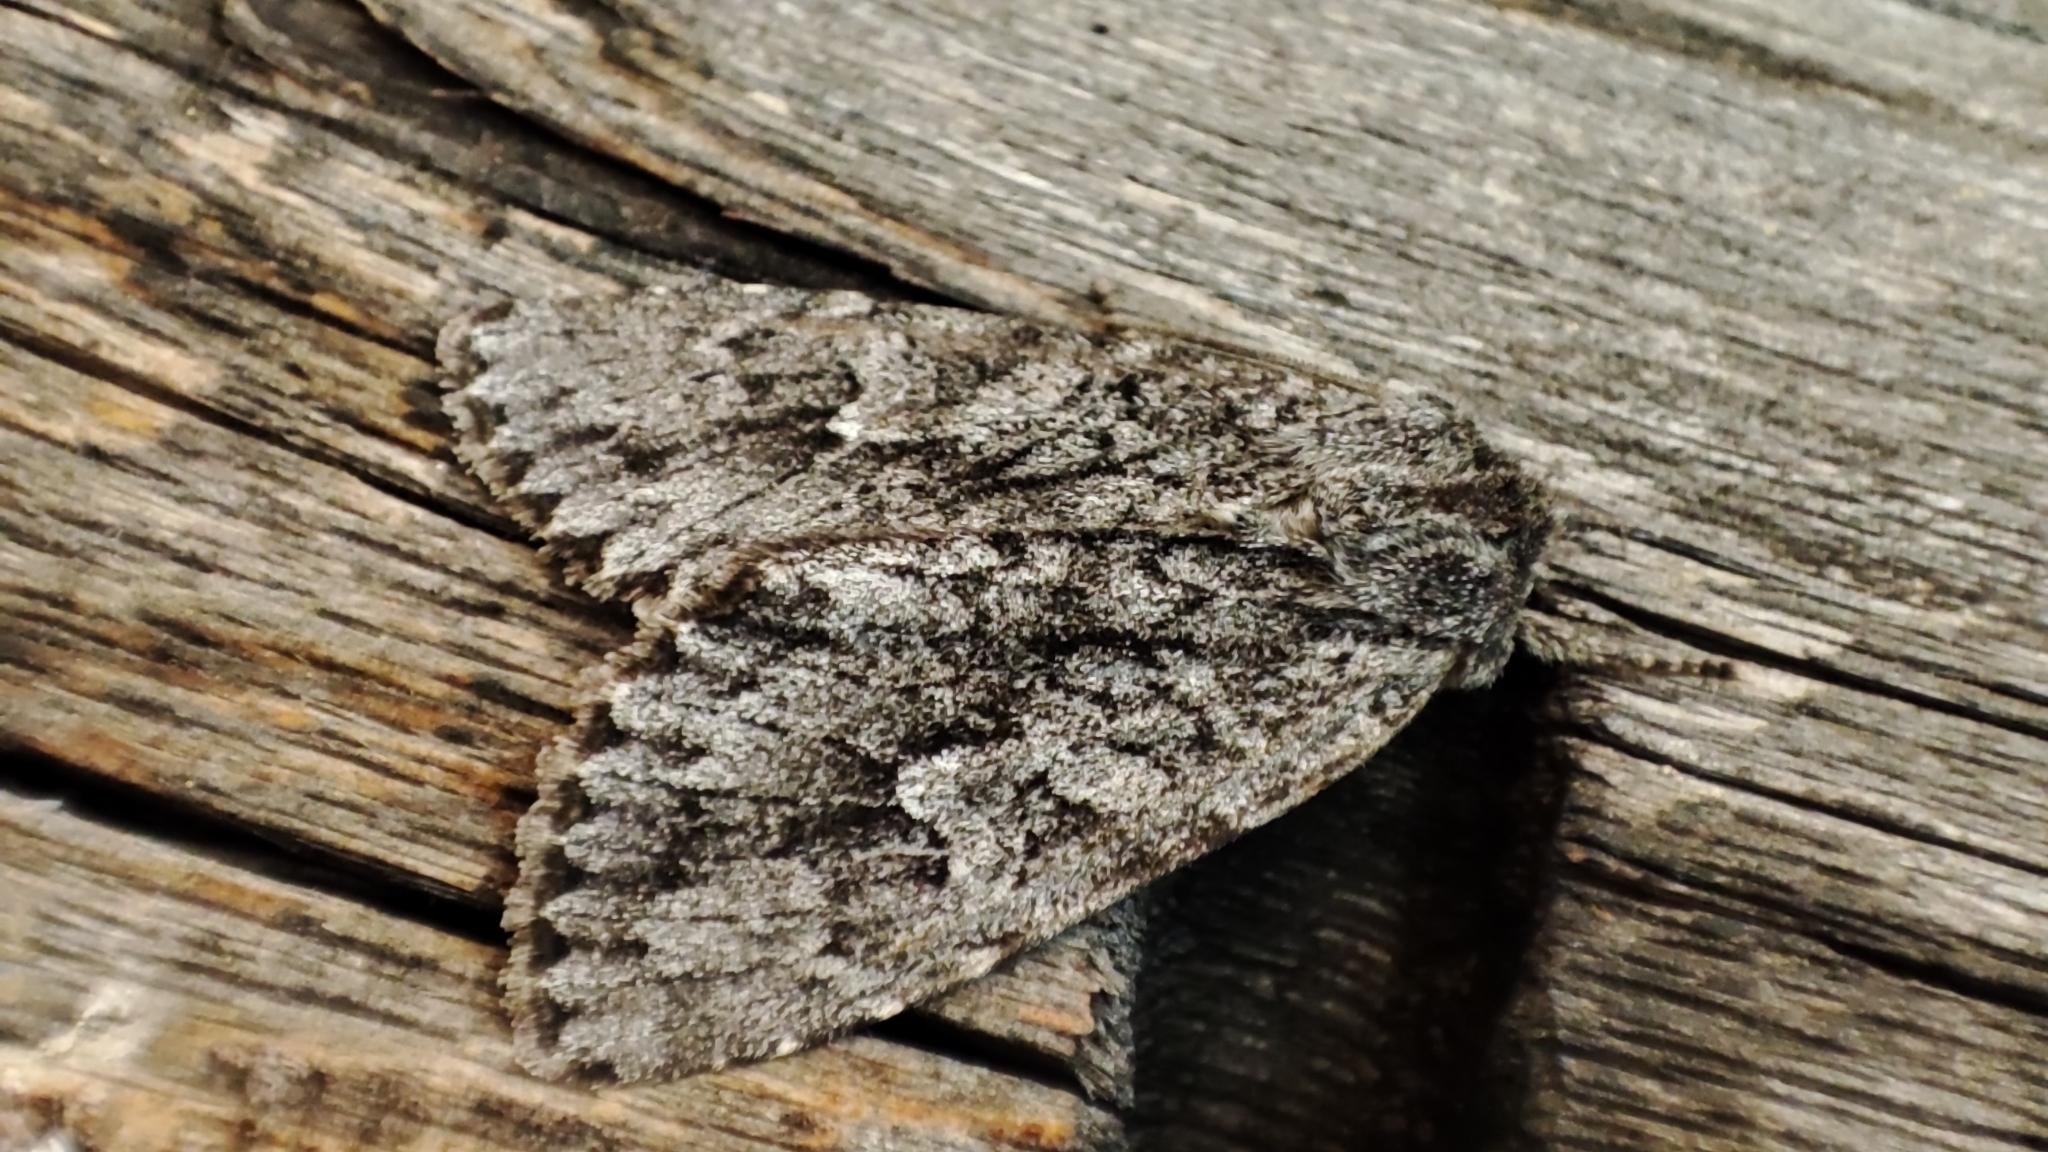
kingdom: Animalia
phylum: Arthropoda
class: Insecta
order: Lepidoptera
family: Noctuidae
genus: Polia
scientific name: Polia vespertilio
